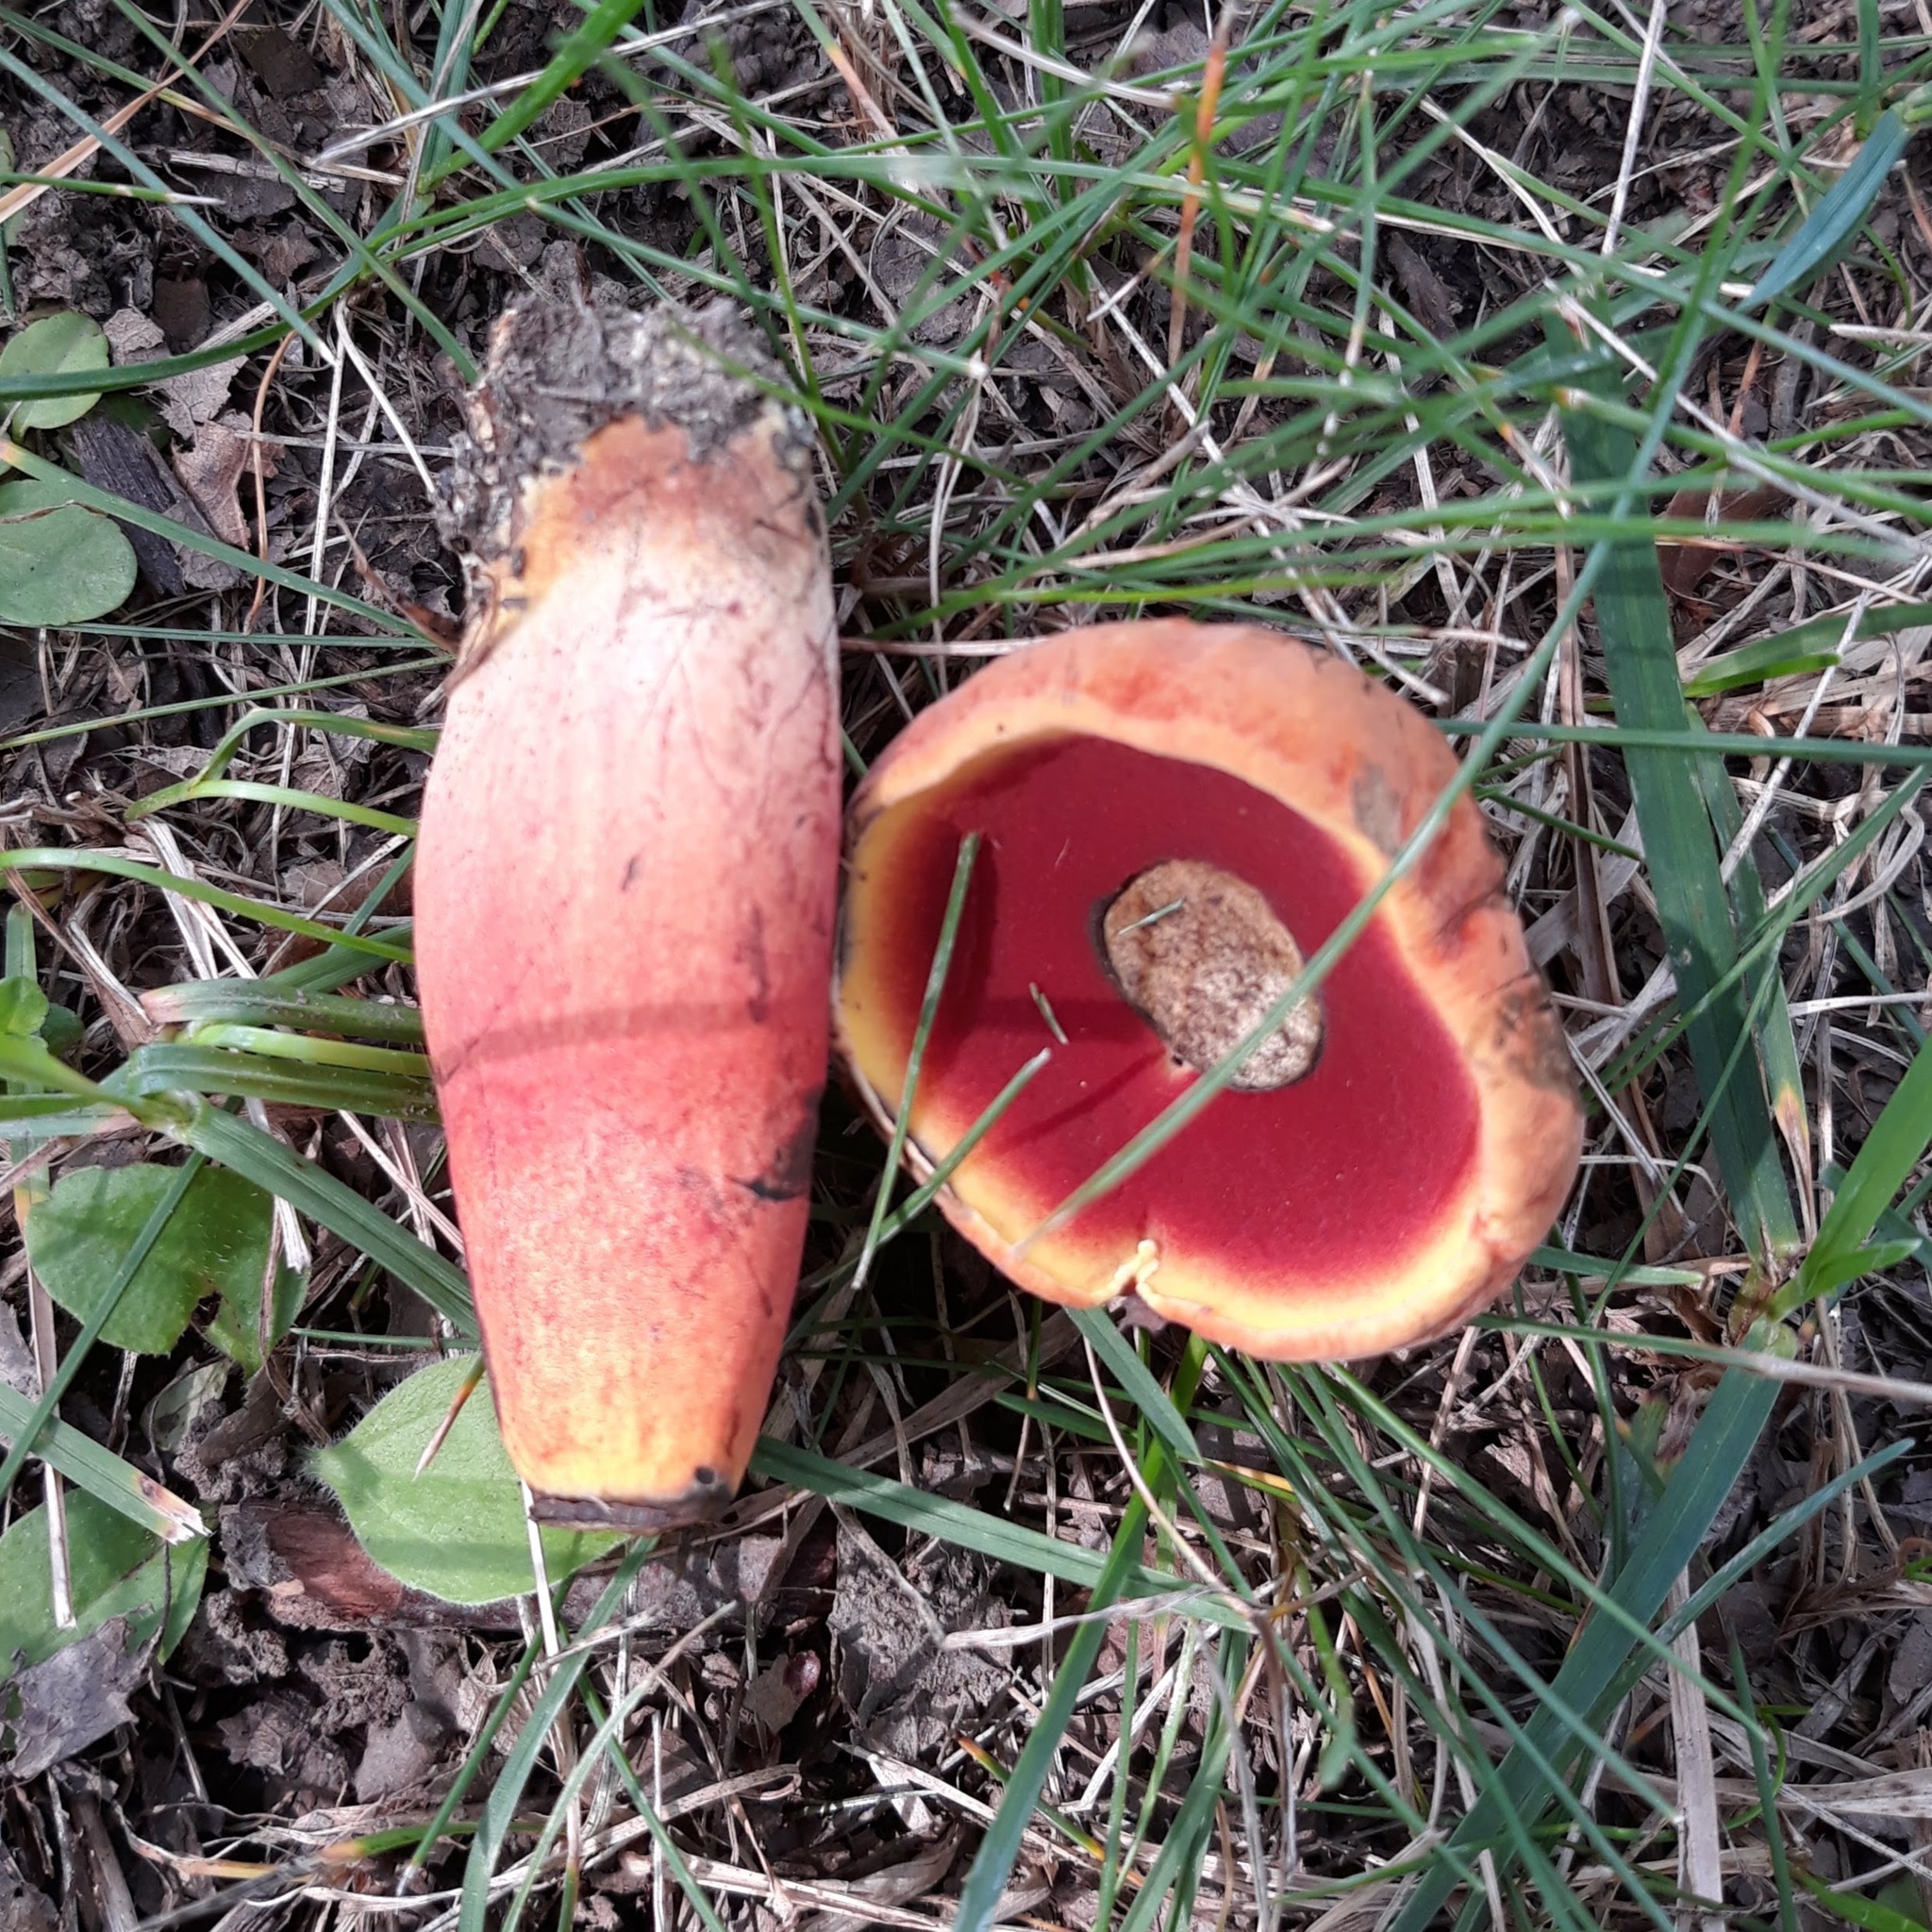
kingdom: Fungi
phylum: Basidiomycota
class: Agaricomycetes
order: Boletales
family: Boletaceae
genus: Boletus
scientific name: Boletus subvelutipes
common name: Red-mouth bolete
